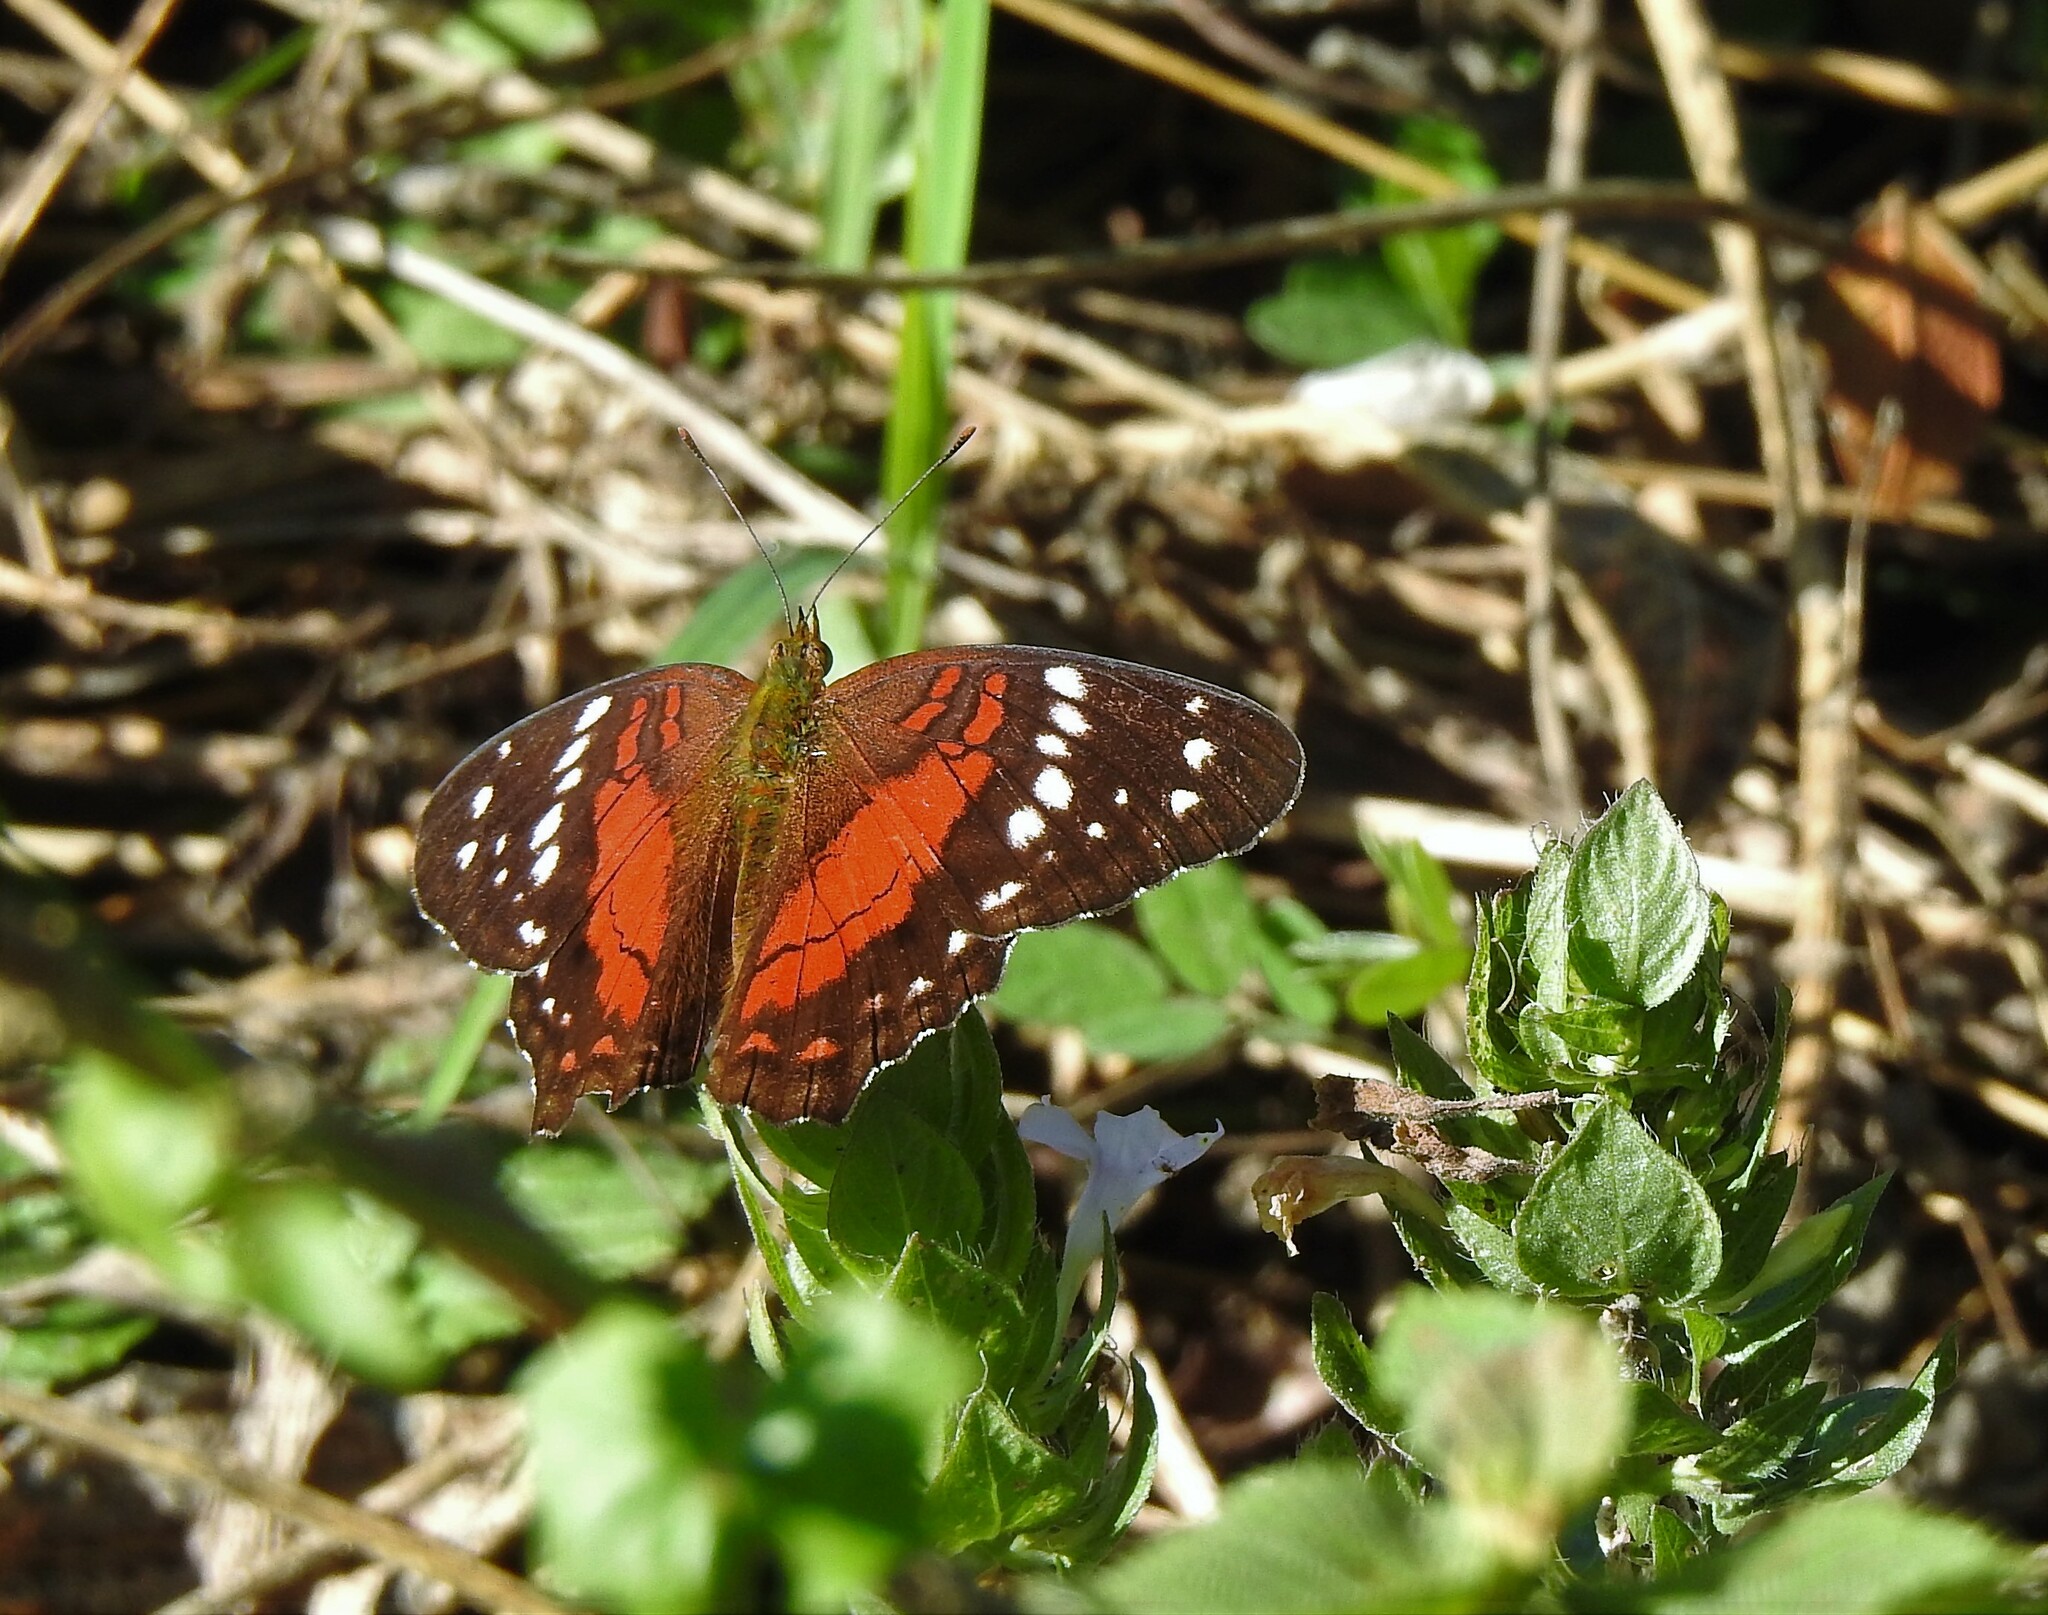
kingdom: Animalia
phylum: Arthropoda
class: Insecta
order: Lepidoptera
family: Nymphalidae
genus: Anartia
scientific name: Anartia amathea
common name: Red peacock
